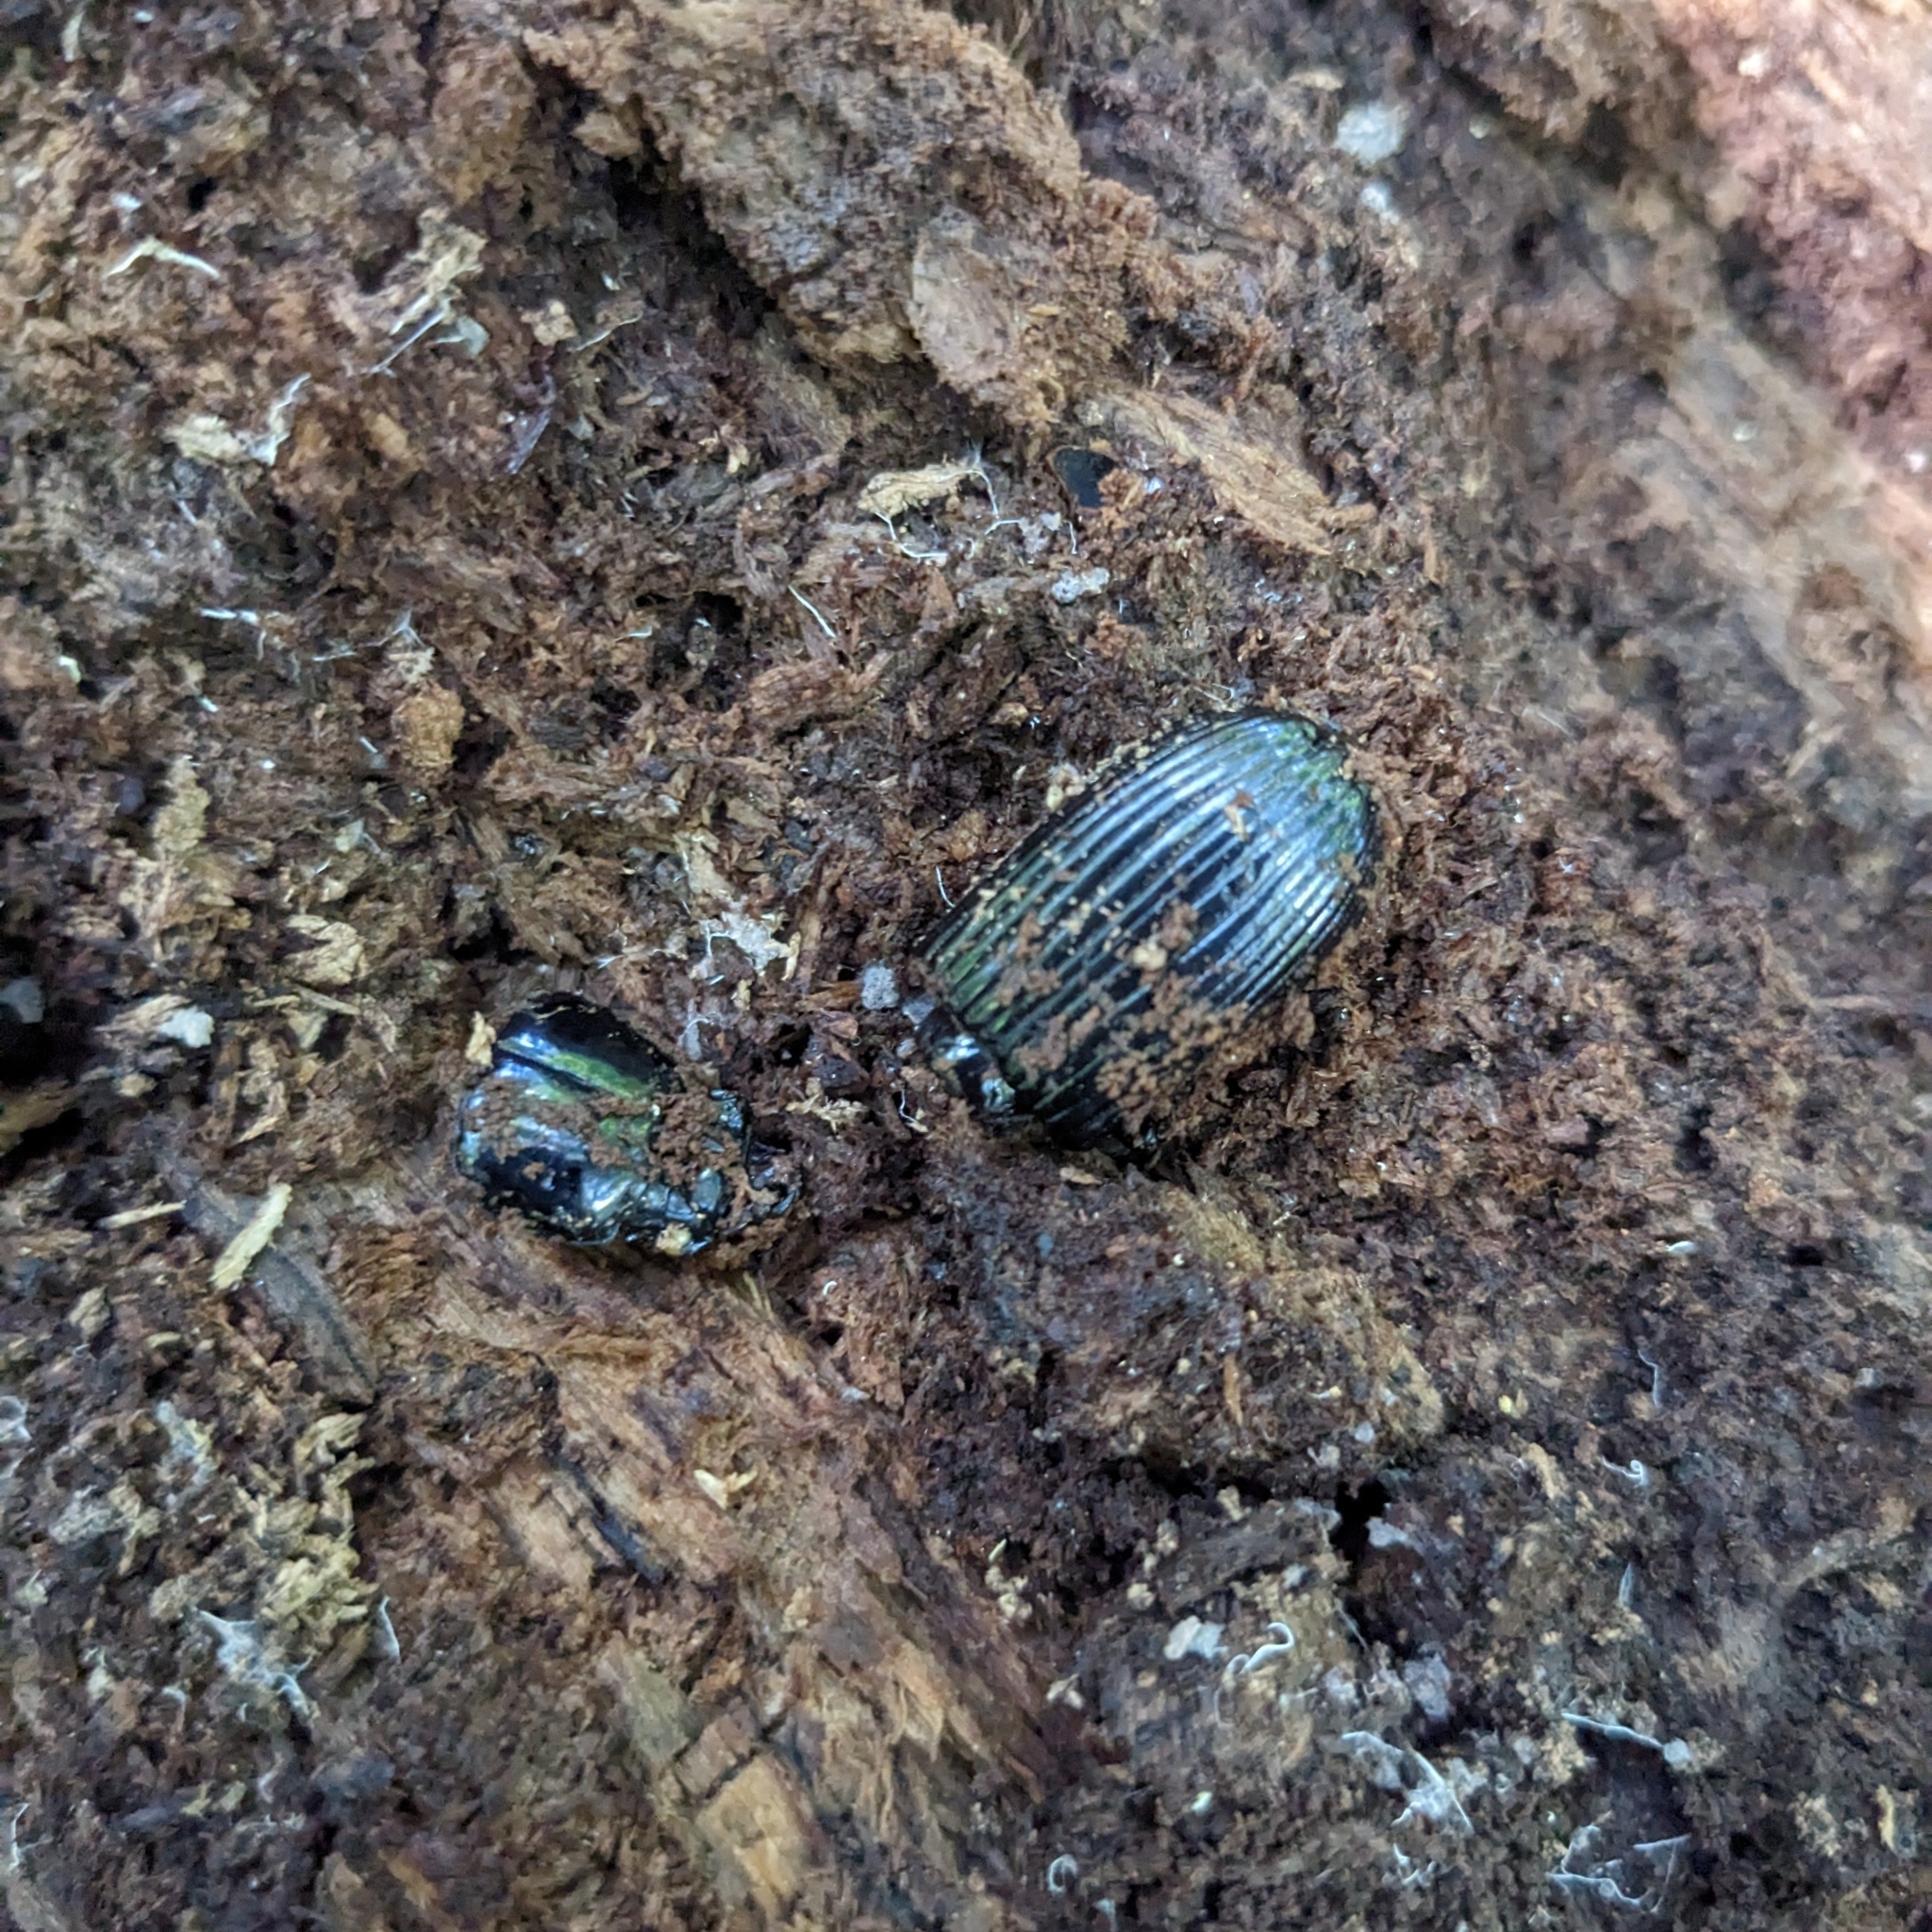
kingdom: Animalia
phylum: Arthropoda
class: Insecta
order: Coleoptera
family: Passalidae
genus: Odontotaenius
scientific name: Odontotaenius disjunctus
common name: Patent leather beetle
